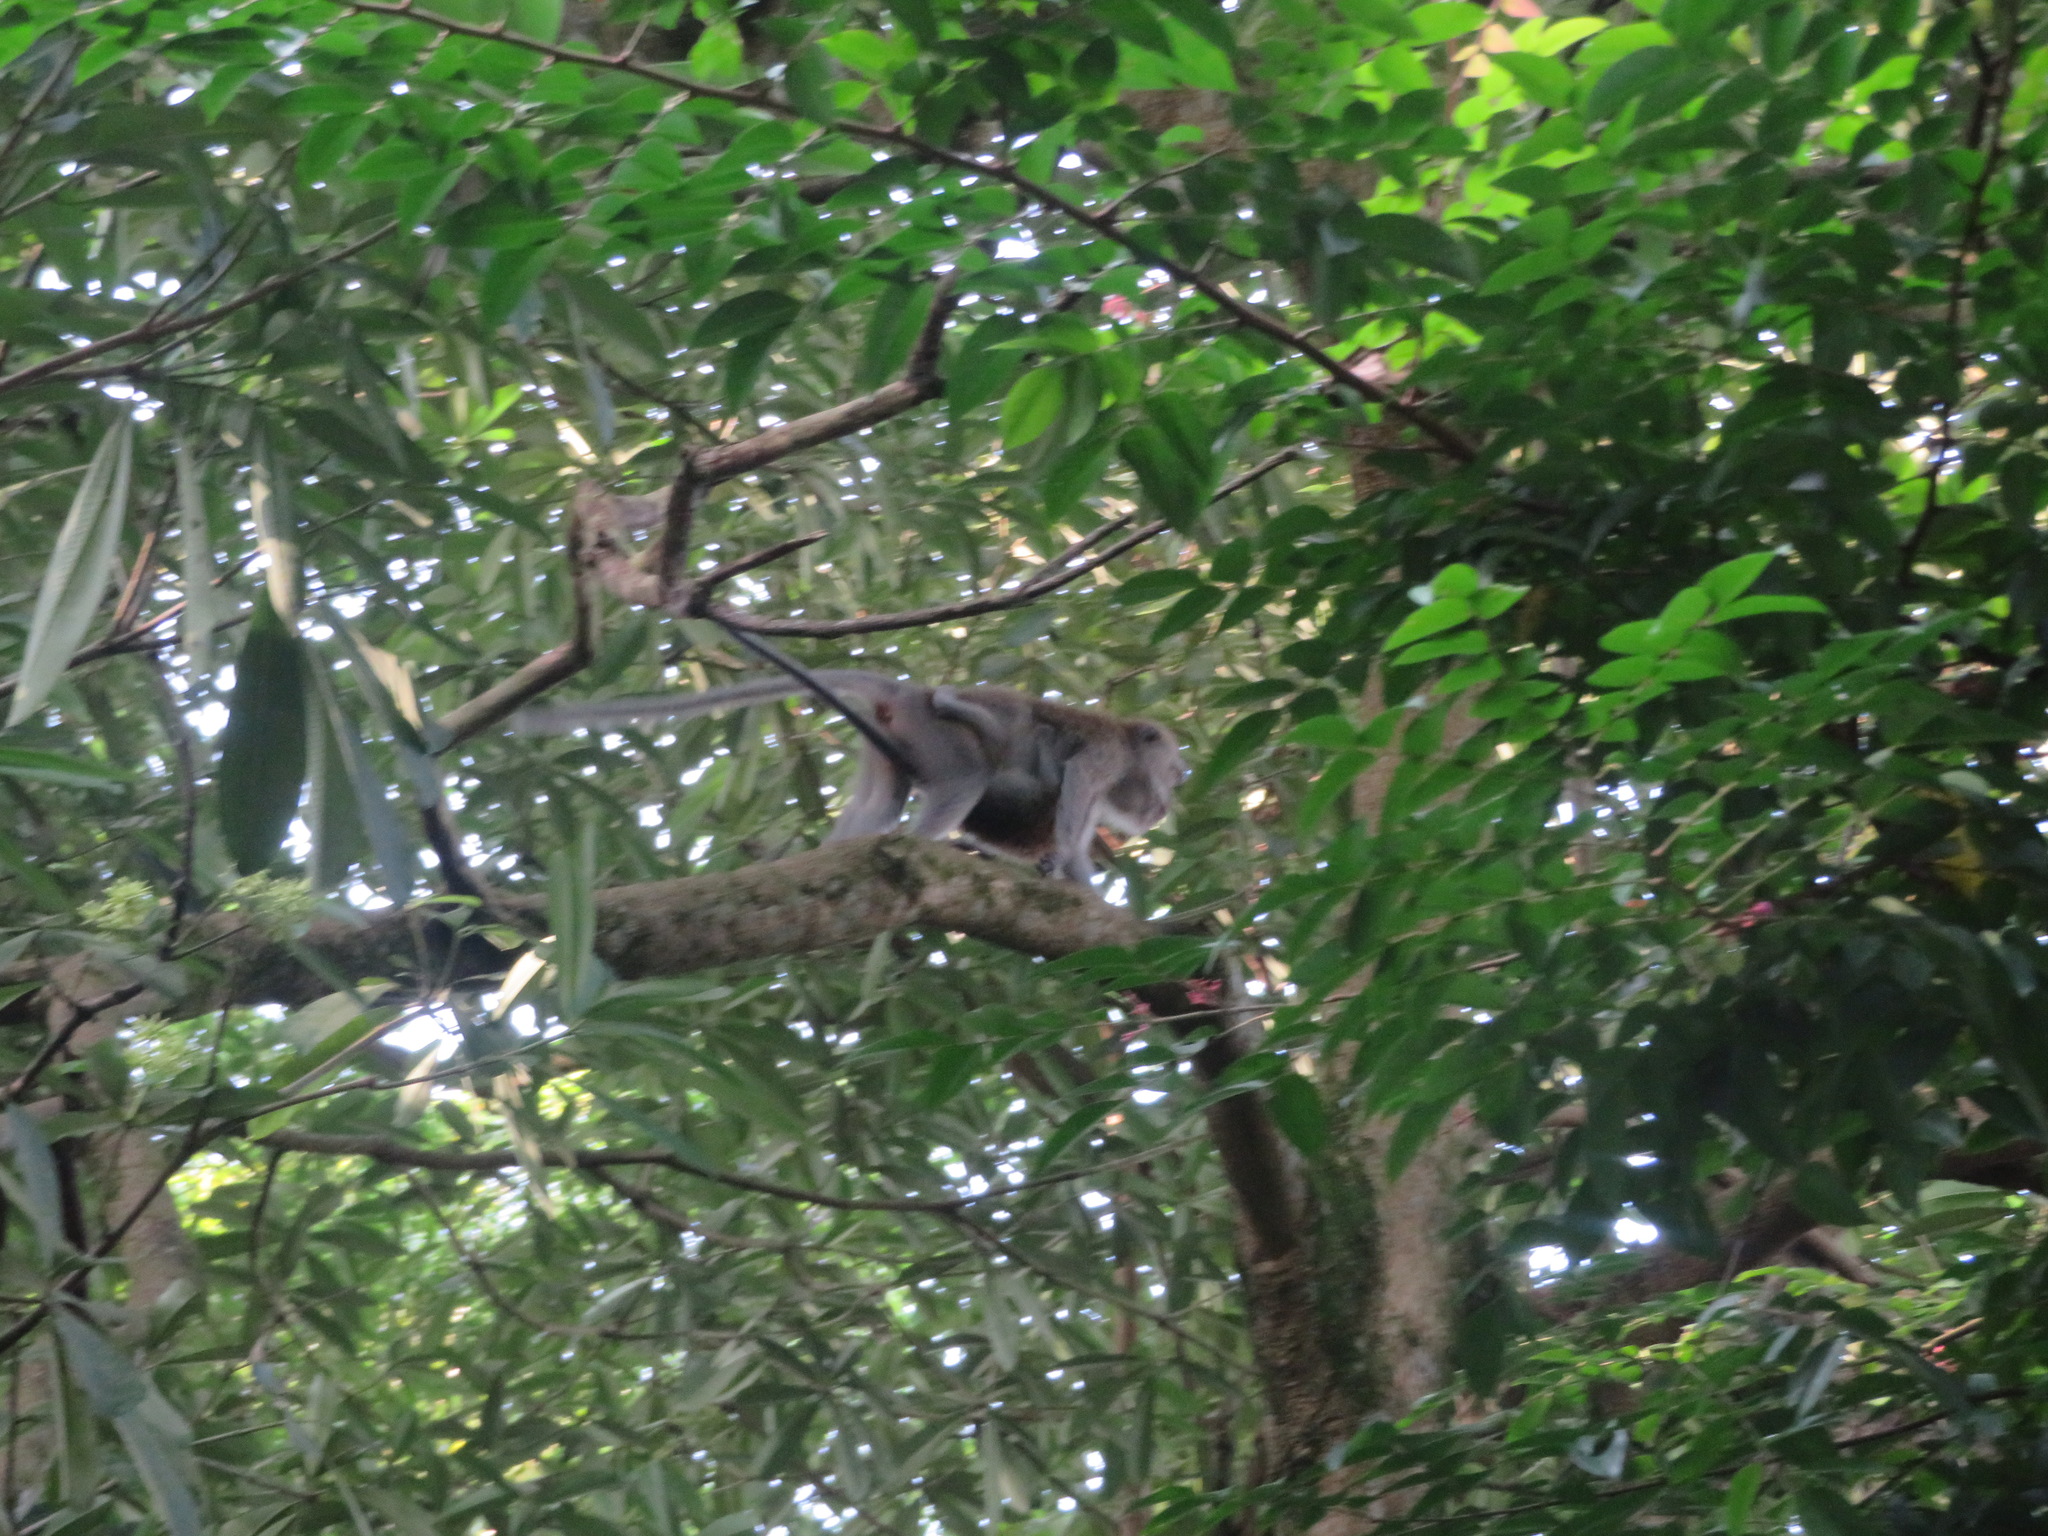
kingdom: Animalia
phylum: Chordata
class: Mammalia
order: Primates
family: Cercopithecidae
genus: Macaca
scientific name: Macaca fascicularis
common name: Crab-eating macaque
